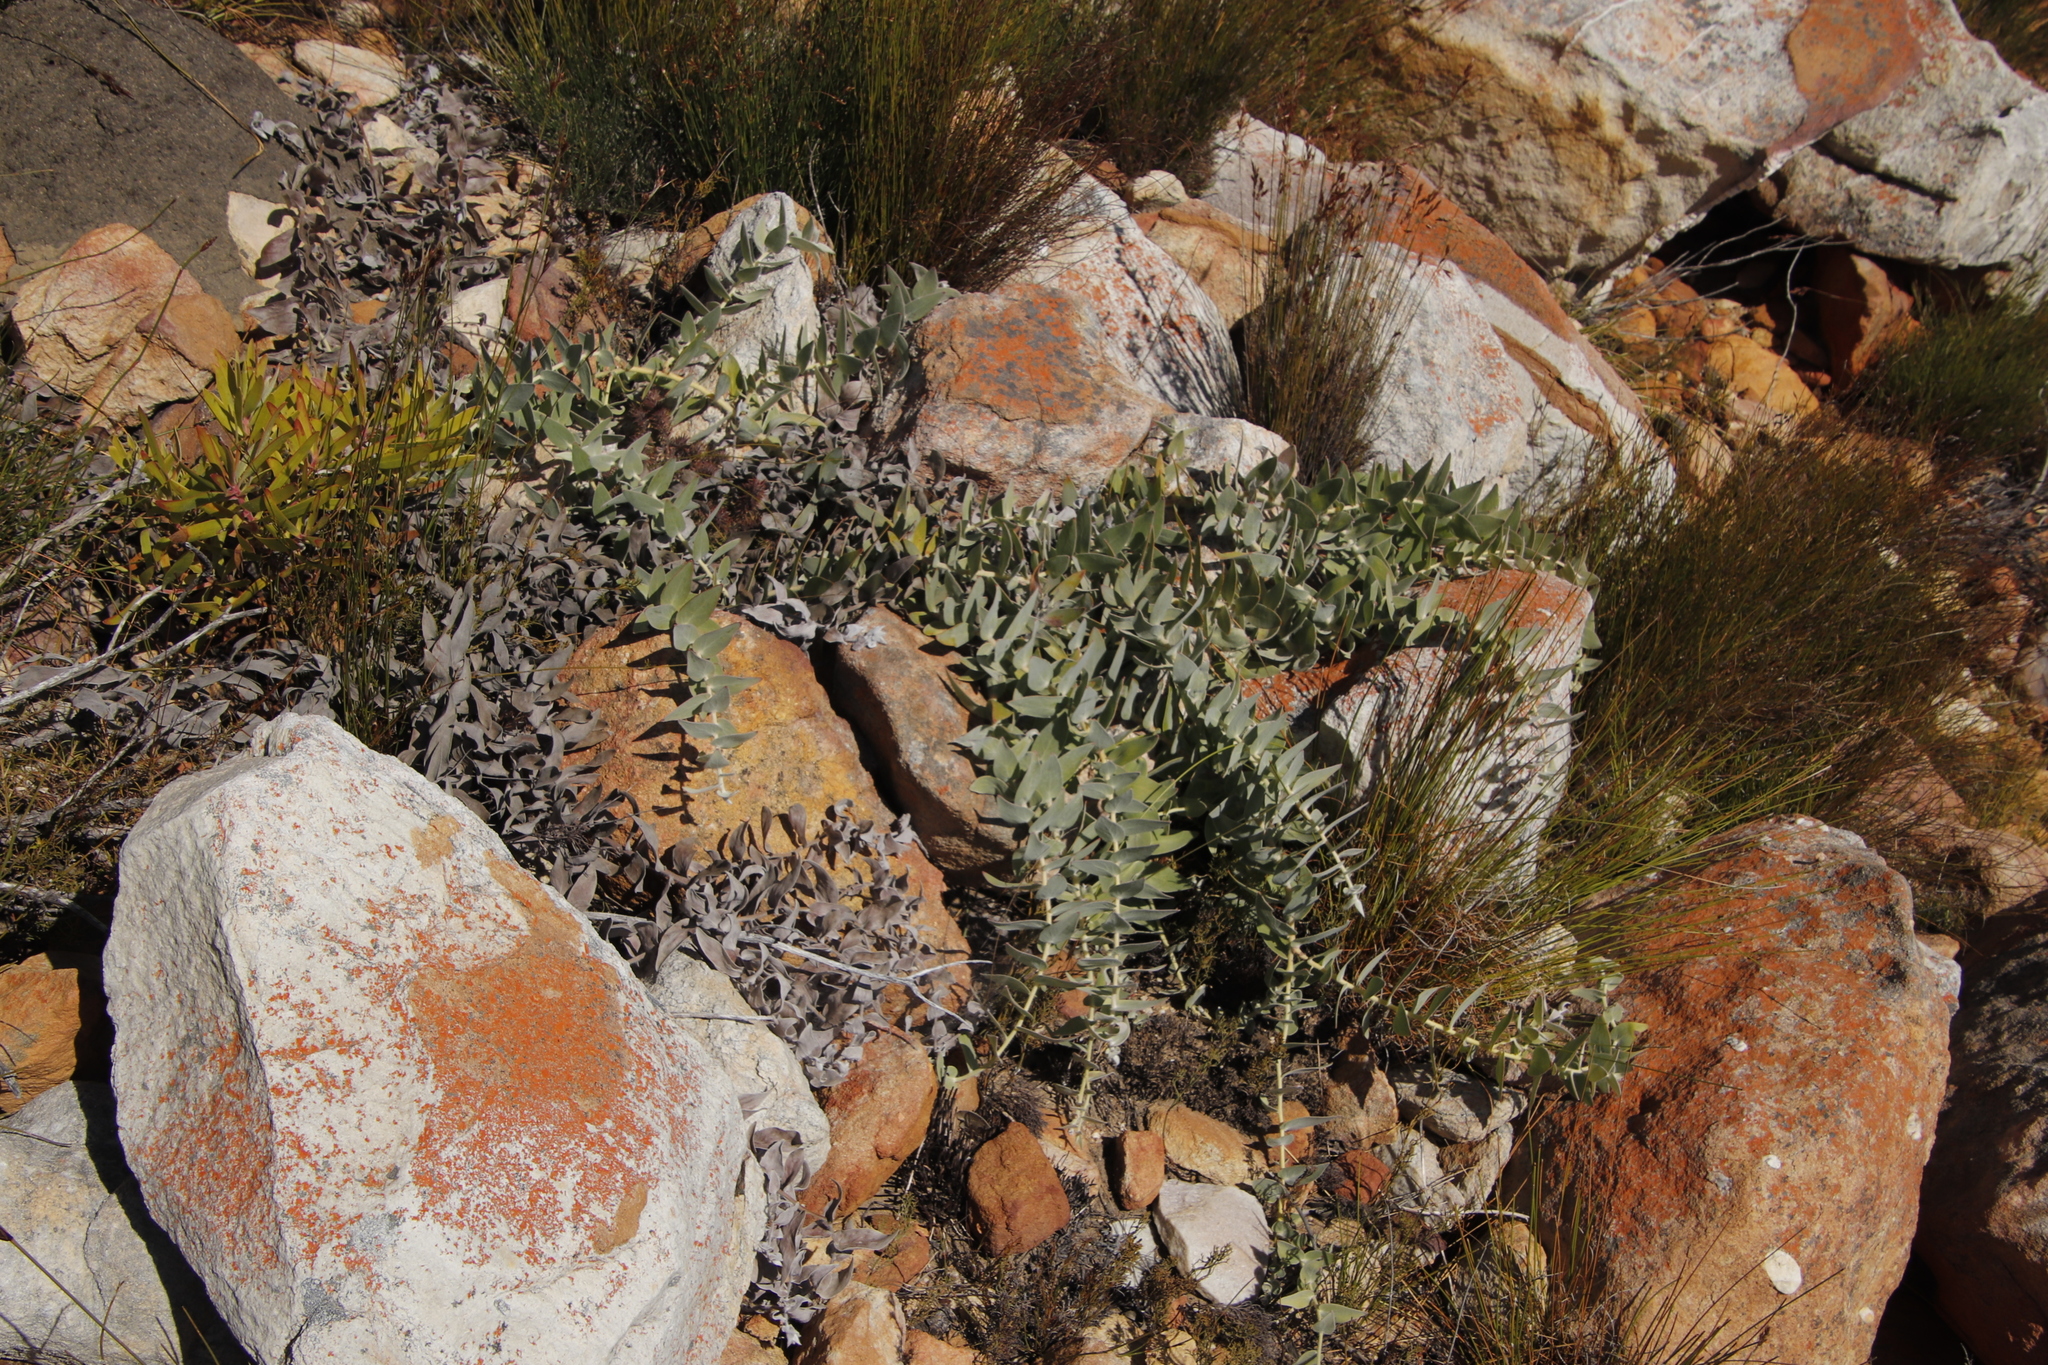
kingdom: Plantae
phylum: Tracheophyta
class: Magnoliopsida
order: Proteales
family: Proteaceae
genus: Leucospermum
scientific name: Leucospermum cordatum
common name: Heart-leaf pincushion
